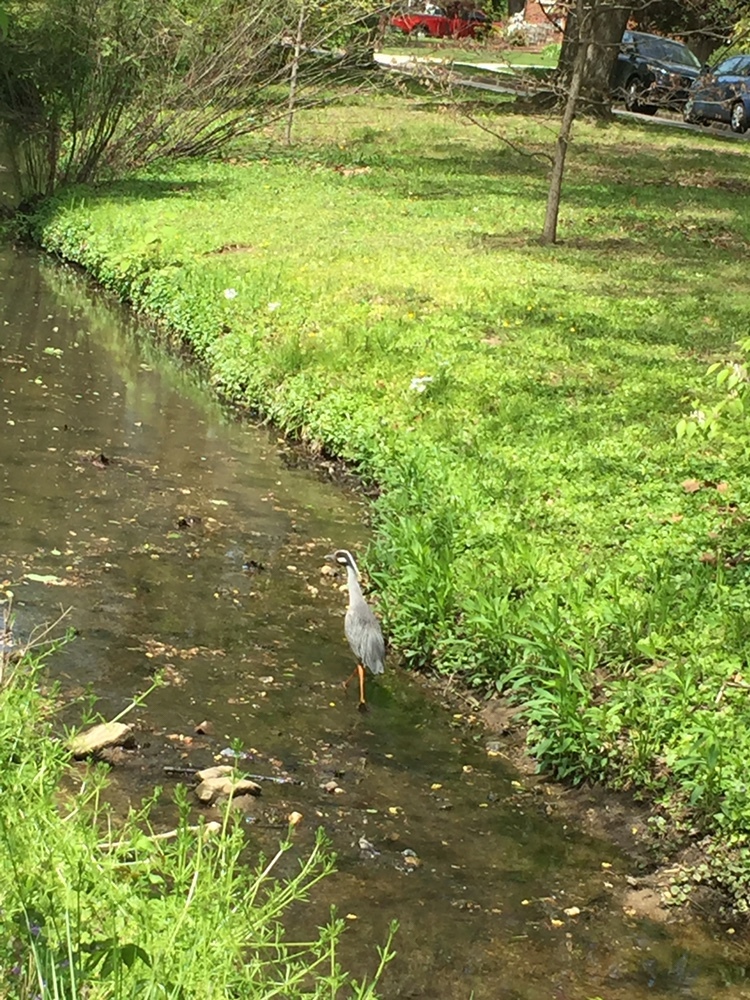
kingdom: Animalia
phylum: Chordata
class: Aves
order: Pelecaniformes
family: Ardeidae
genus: Nyctanassa
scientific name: Nyctanassa violacea
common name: Yellow-crowned night heron
